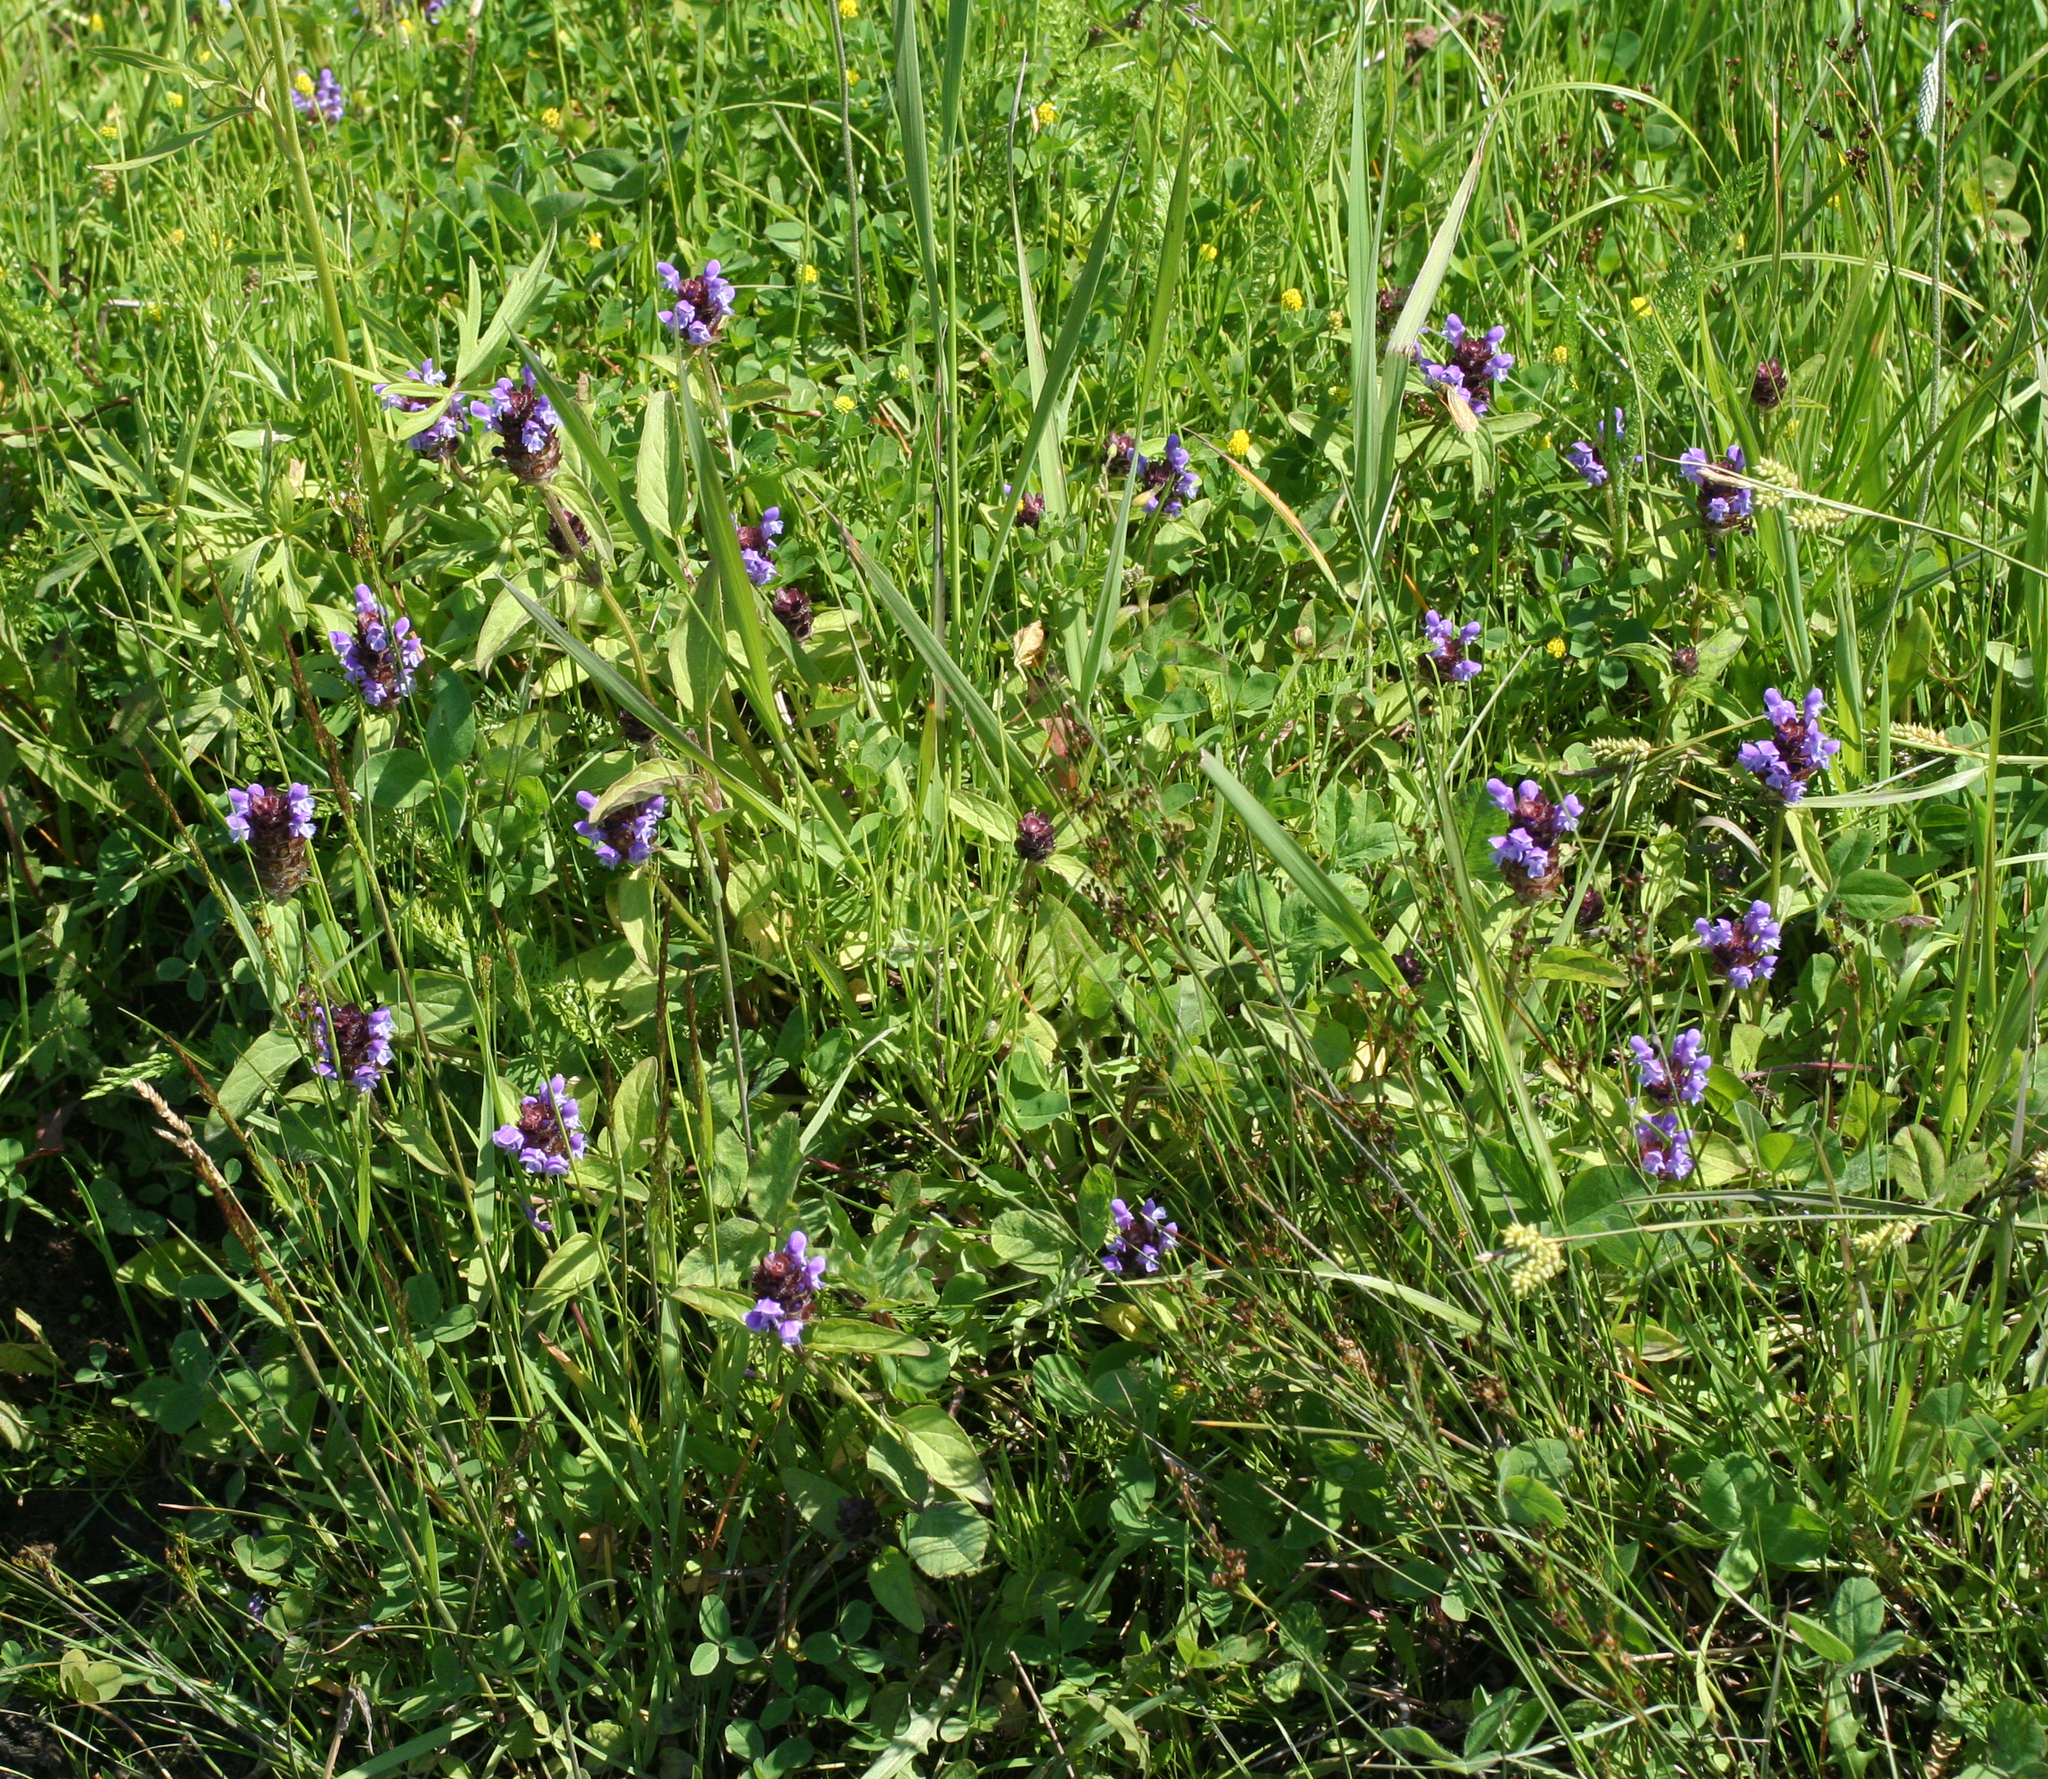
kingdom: Plantae
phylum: Tracheophyta
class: Magnoliopsida
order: Lamiales
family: Lamiaceae
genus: Prunella
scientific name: Prunella vulgaris
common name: Heal-all
